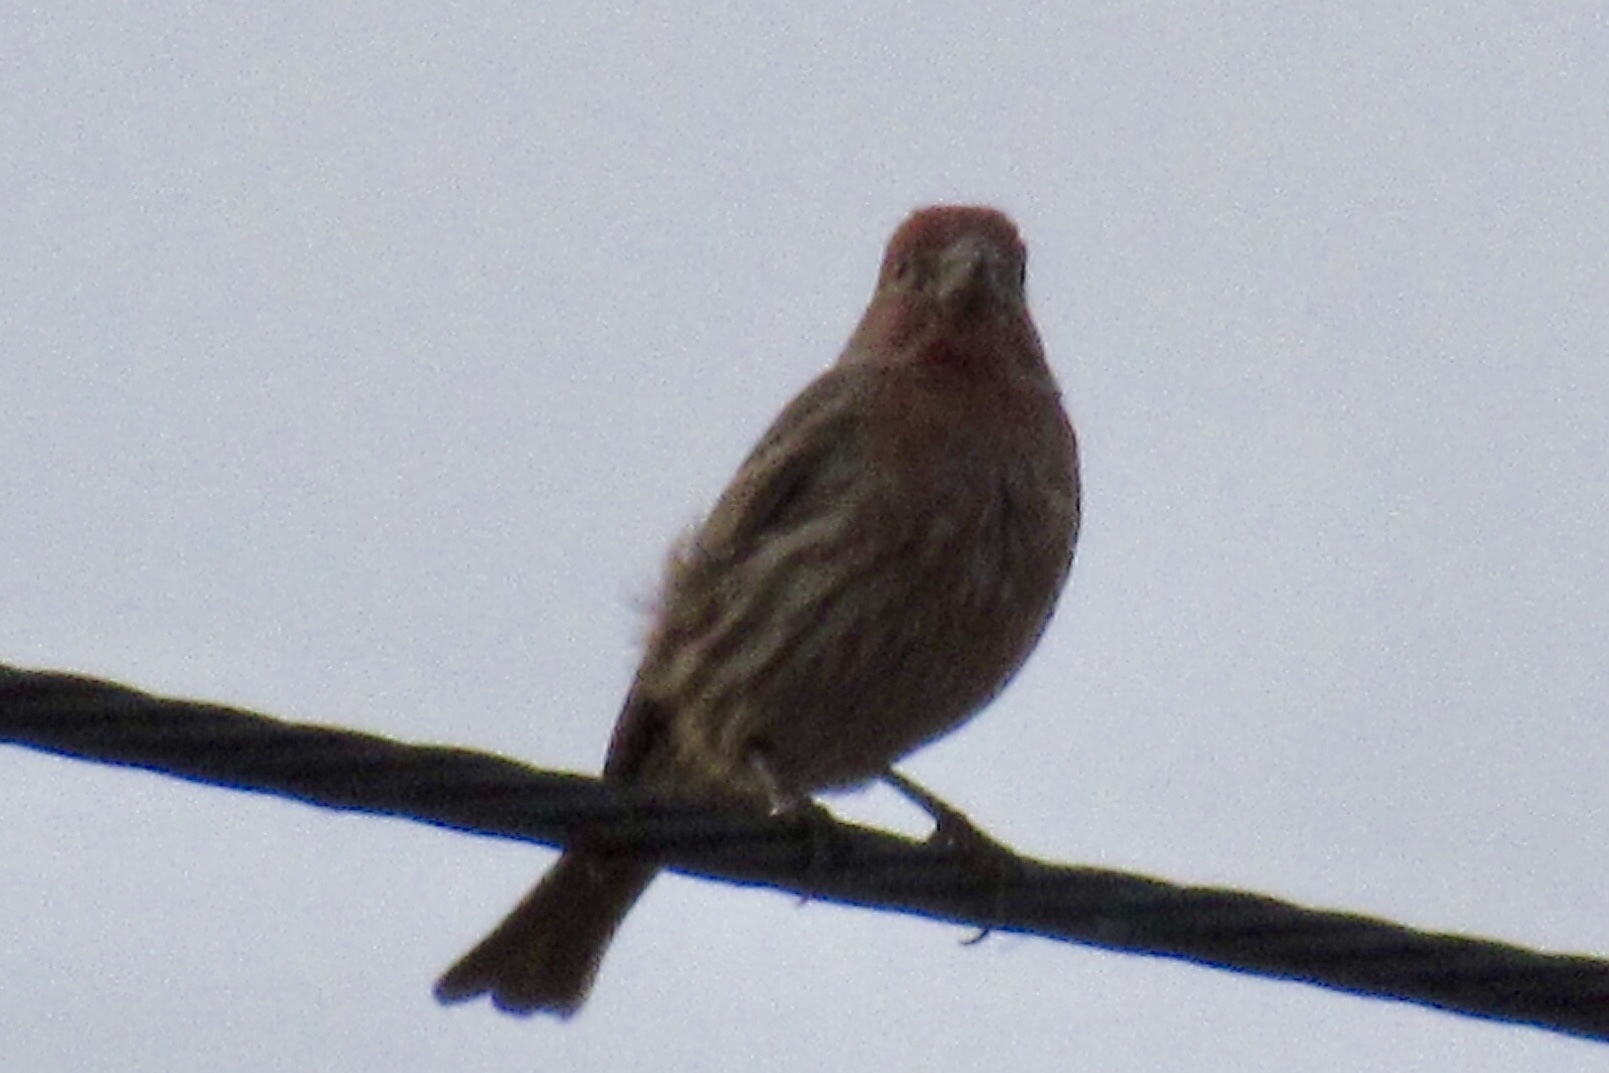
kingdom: Animalia
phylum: Chordata
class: Aves
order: Passeriformes
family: Fringillidae
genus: Haemorhous
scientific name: Haemorhous mexicanus
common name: House finch
